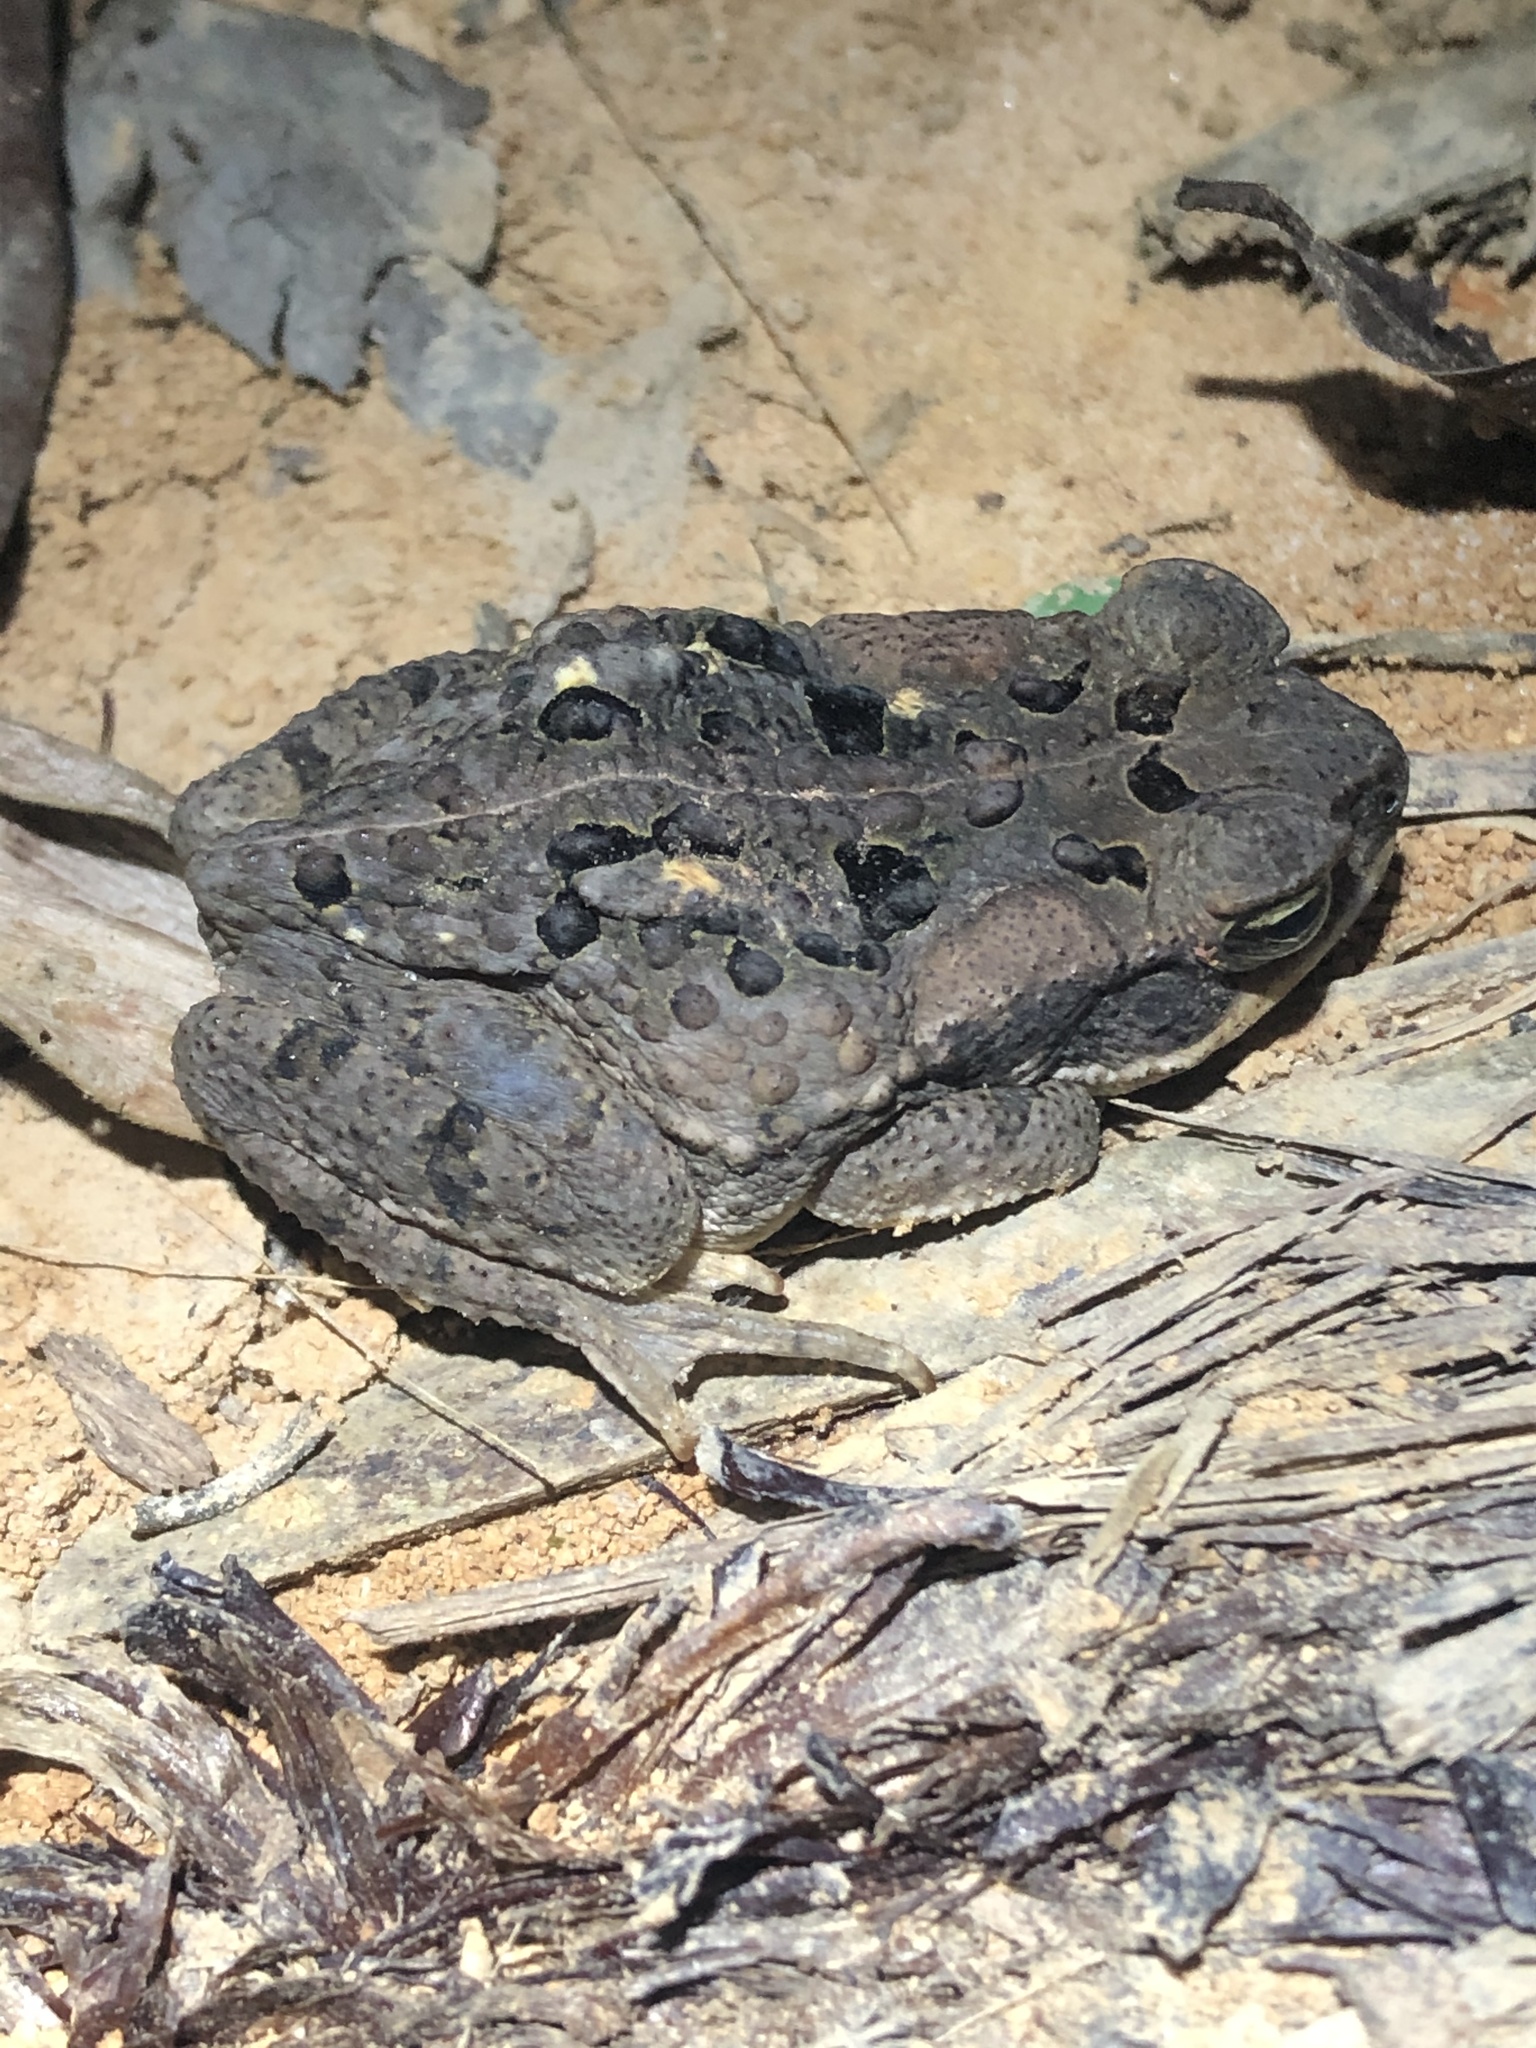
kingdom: Animalia
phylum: Chordata
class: Amphibia
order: Anura
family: Bufonidae
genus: Rhinella
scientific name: Rhinella marina
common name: Cane toad
